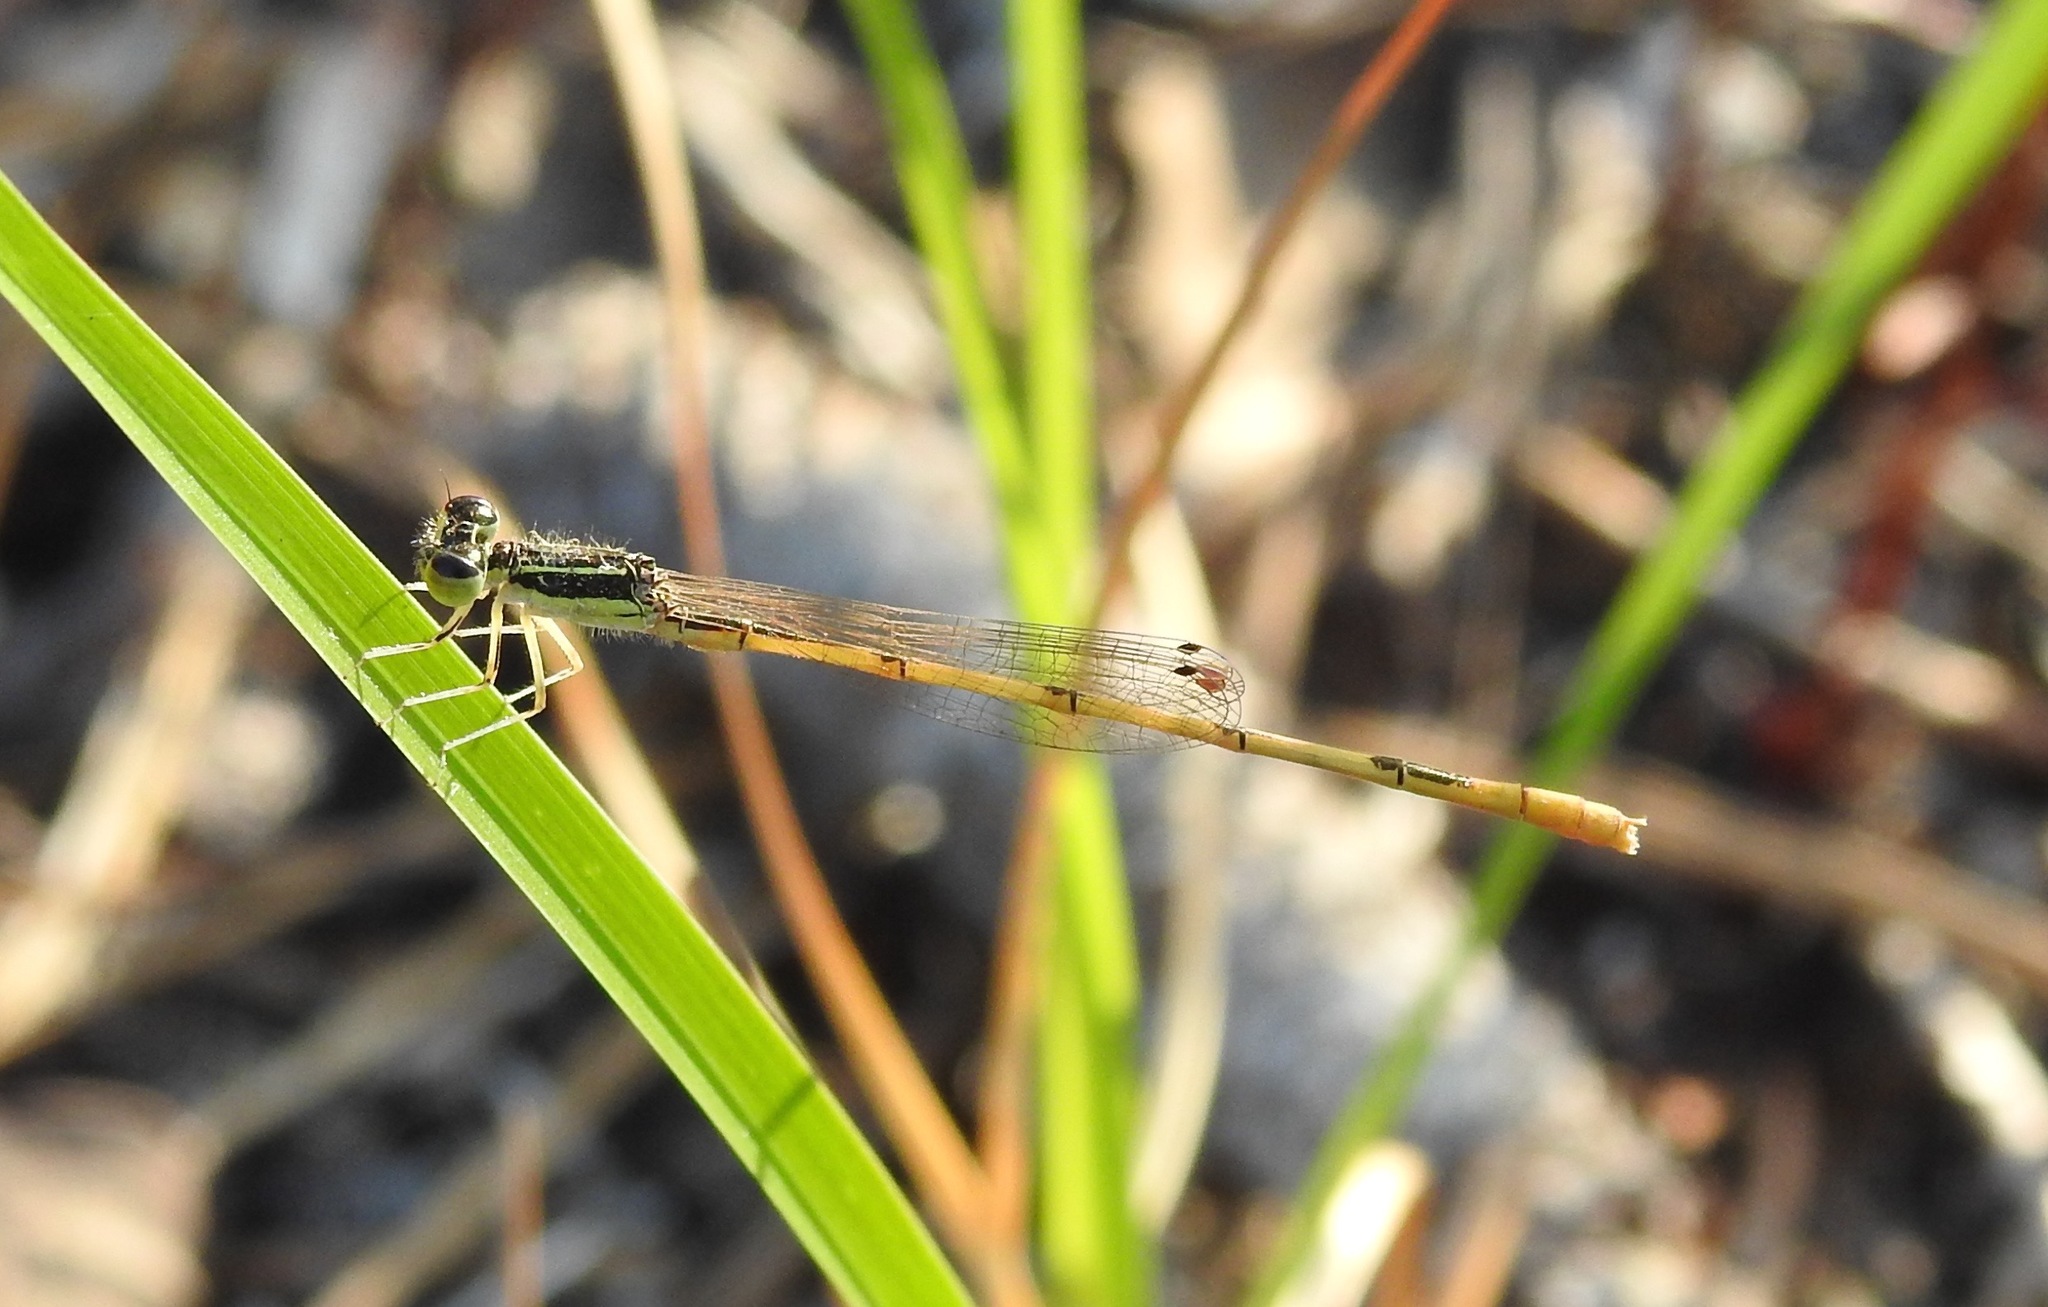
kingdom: Animalia
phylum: Arthropoda
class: Insecta
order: Odonata
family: Coenagrionidae
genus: Ischnura
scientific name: Ischnura hastata
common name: Citrine forktail
